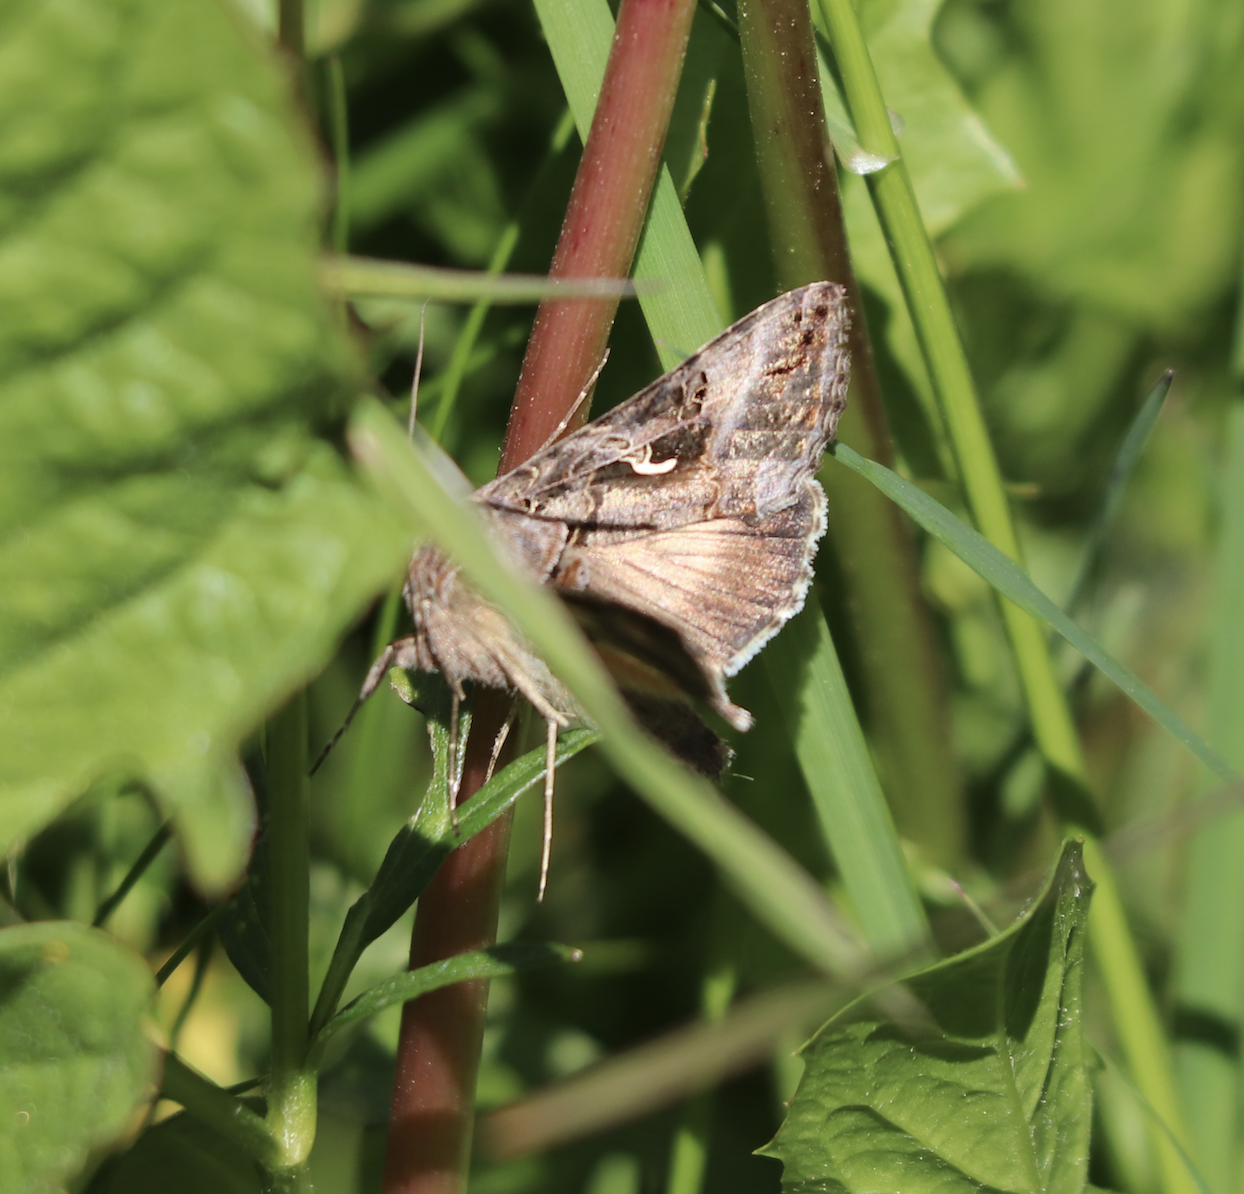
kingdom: Animalia
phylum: Arthropoda
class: Insecta
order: Lepidoptera
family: Noctuidae
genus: Autographa
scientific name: Autographa gamma
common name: Silver y
